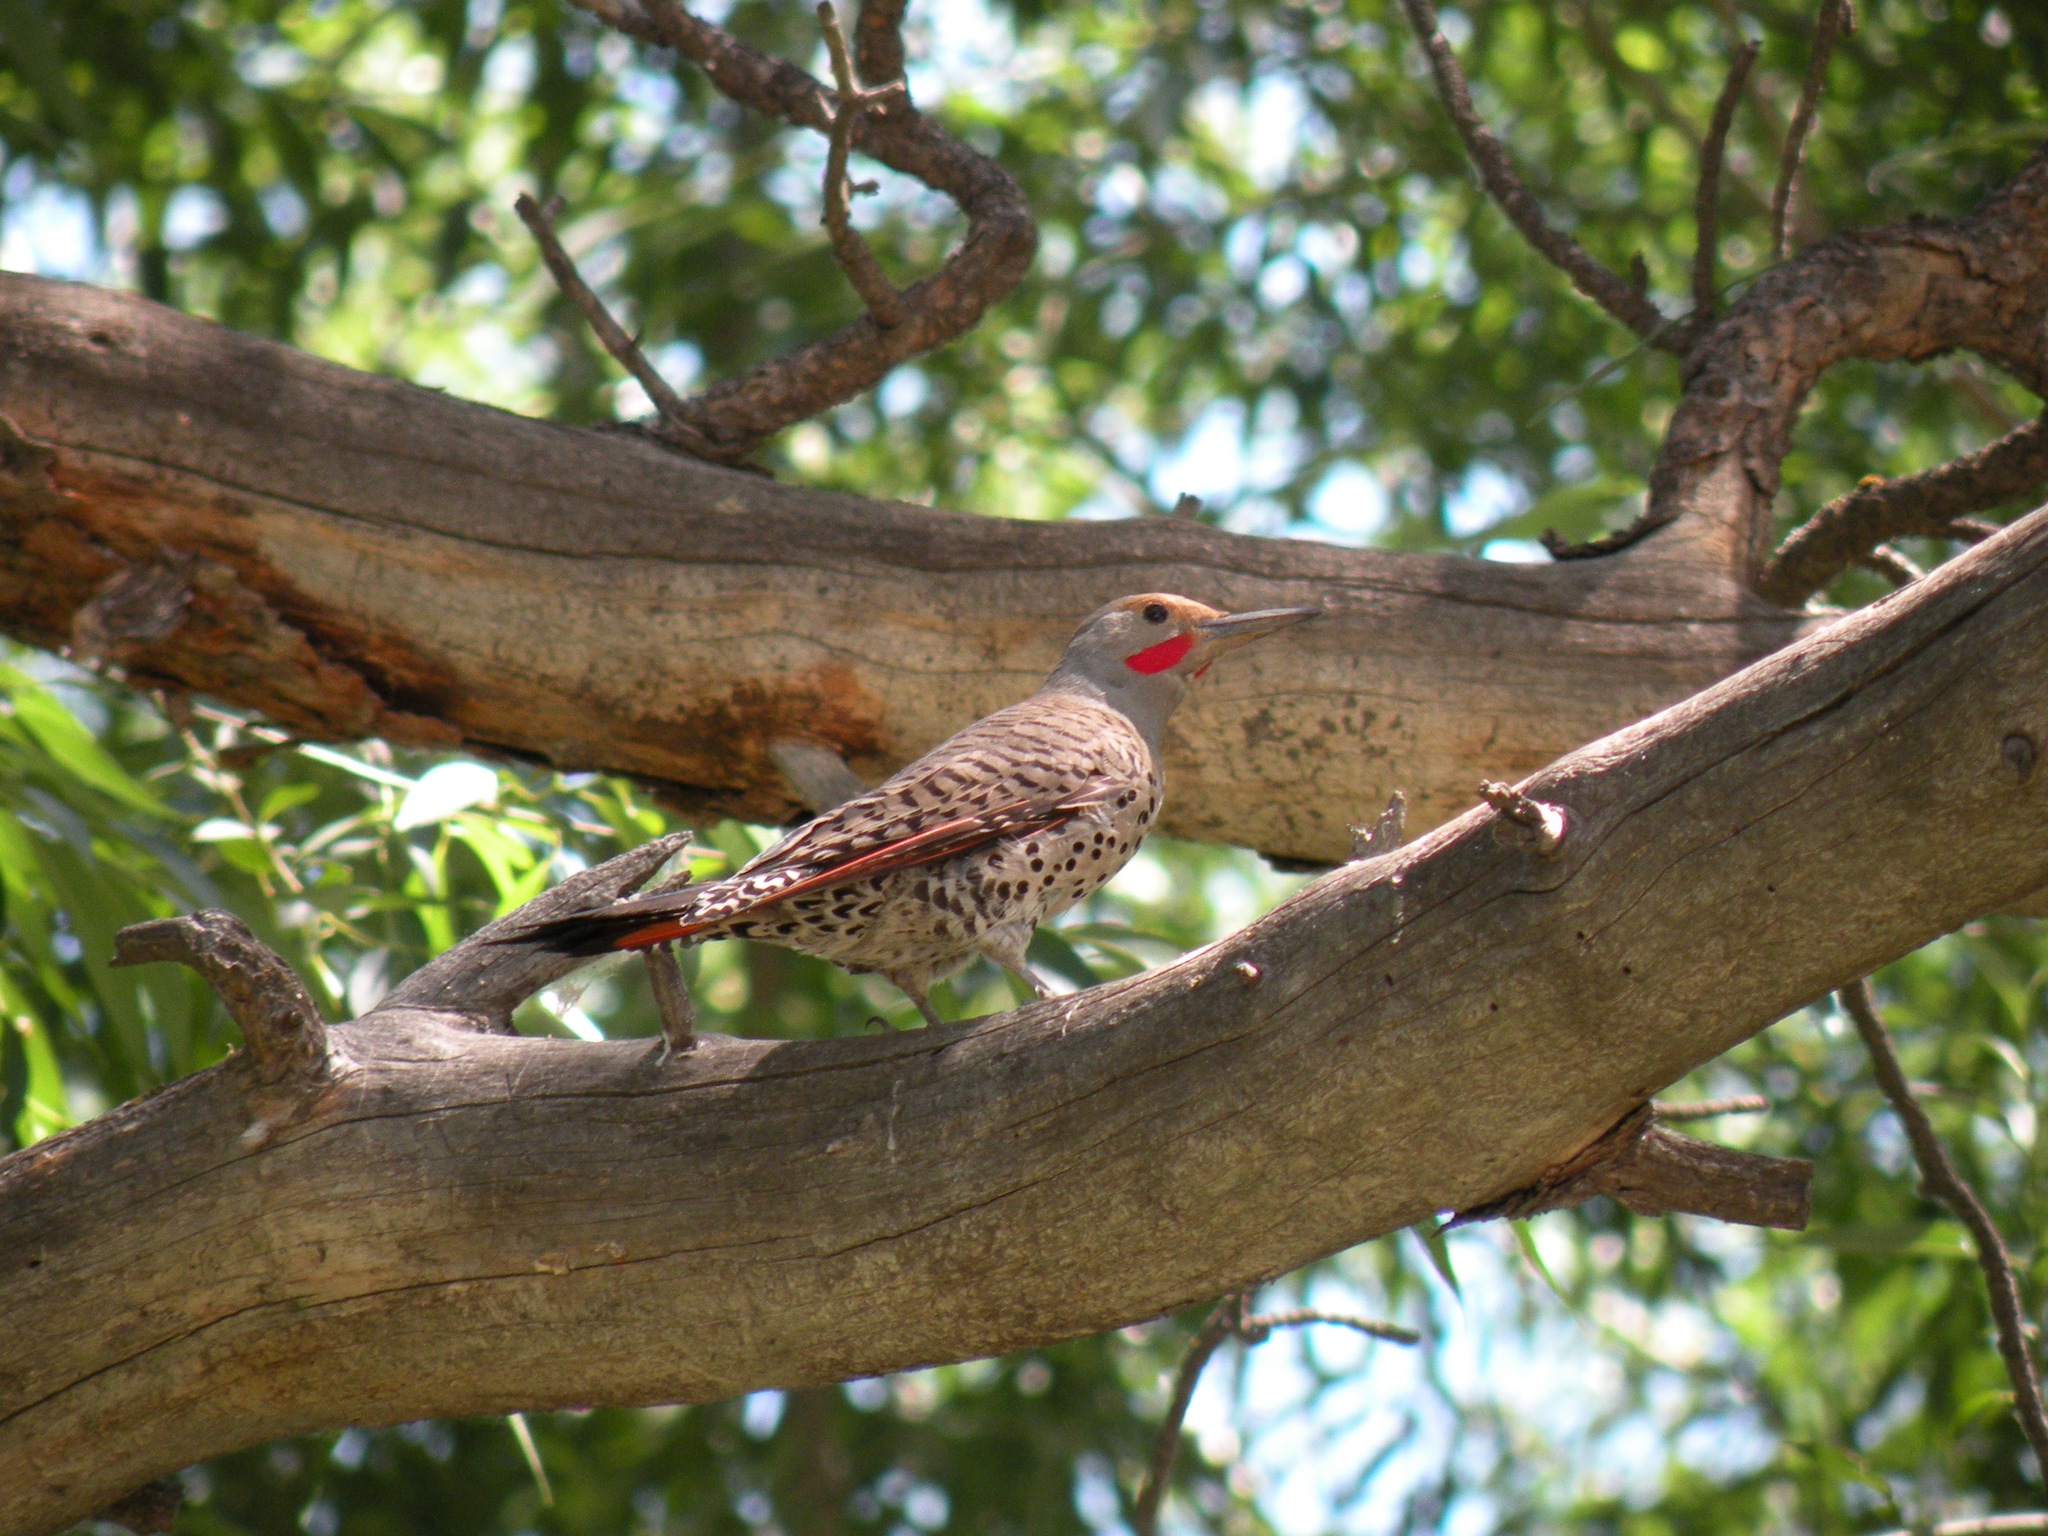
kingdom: Animalia
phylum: Chordata
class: Aves
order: Piciformes
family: Picidae
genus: Colaptes
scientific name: Colaptes auratus
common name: Northern flicker
